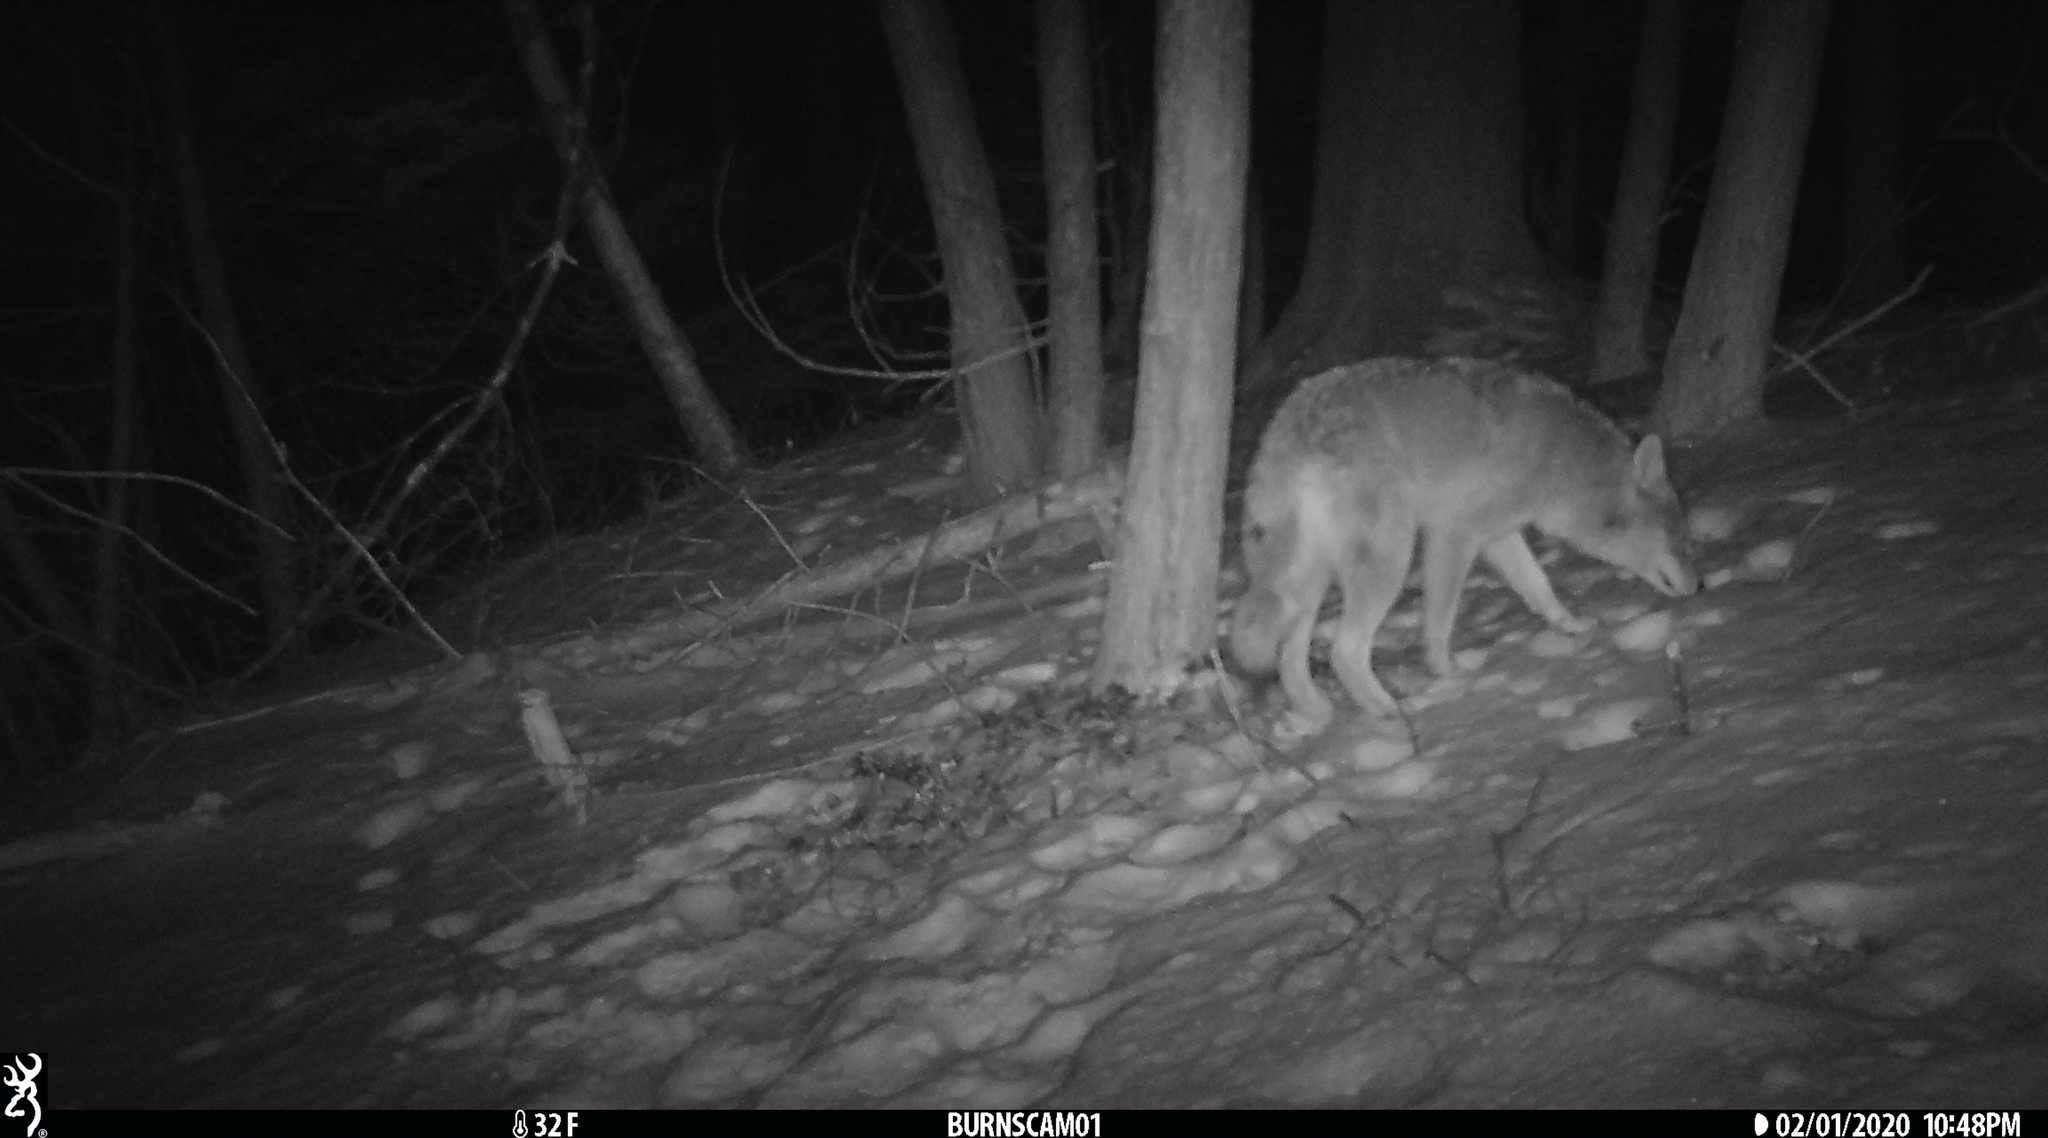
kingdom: Animalia
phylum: Chordata
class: Mammalia
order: Carnivora
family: Canidae
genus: Canis
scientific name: Canis latrans
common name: Coyote
